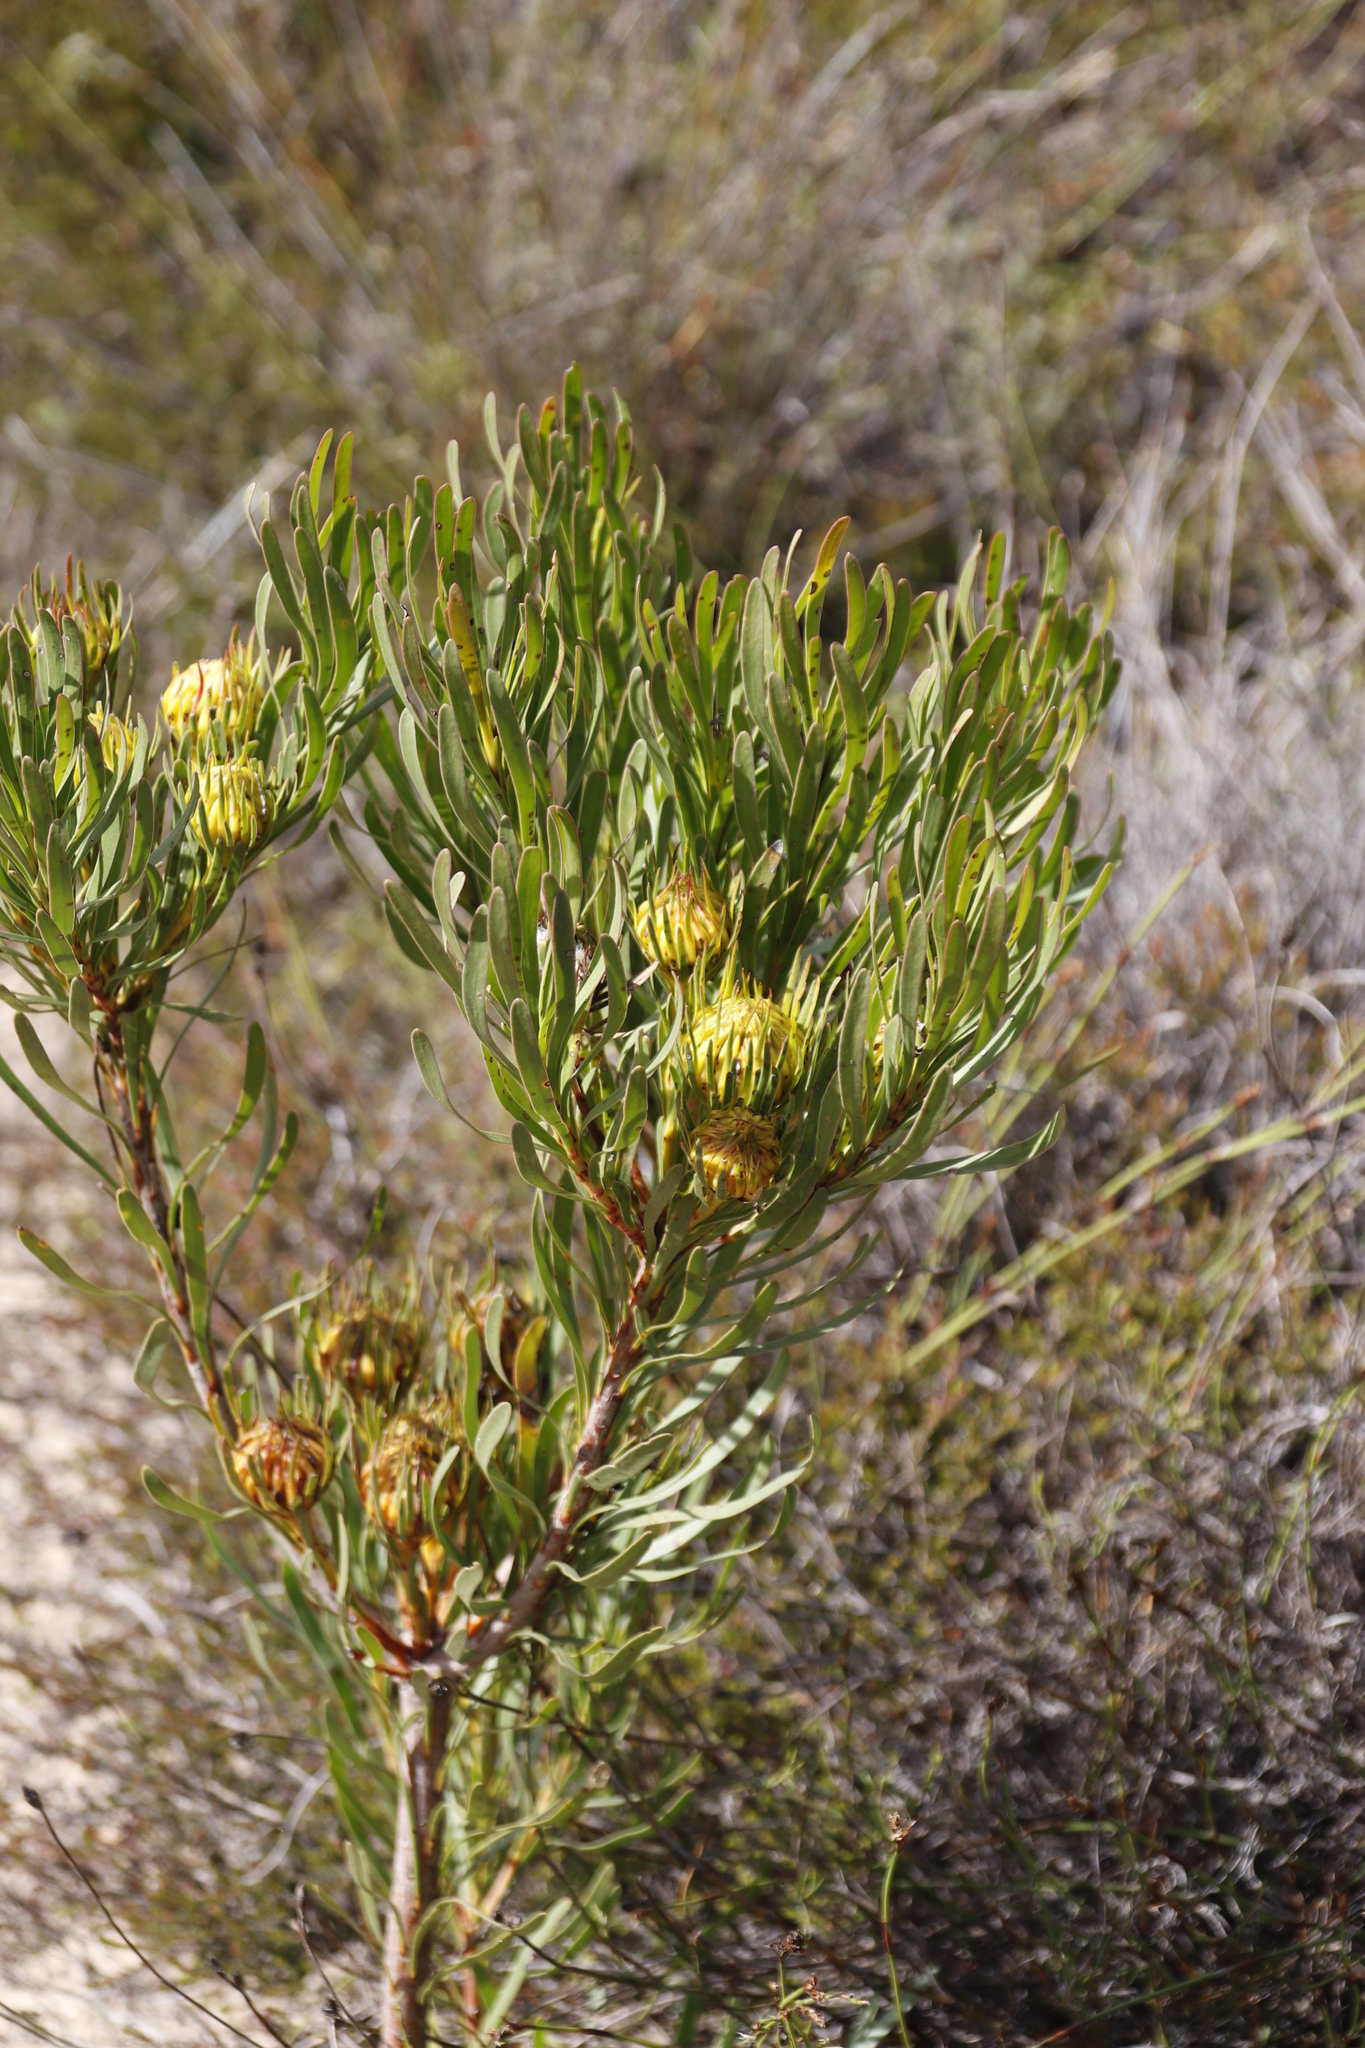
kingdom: Plantae
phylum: Tracheophyta
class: Magnoliopsida
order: Proteales
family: Proteaceae
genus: Aulax
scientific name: Aulax umbellata
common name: Broad-leaf featherbush
